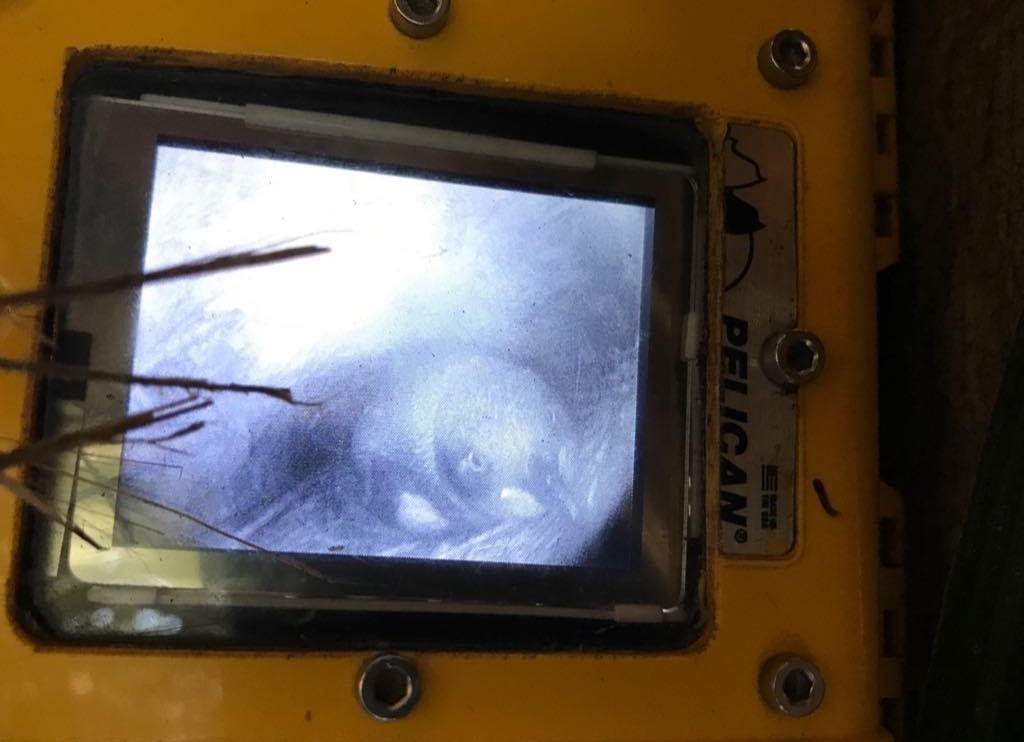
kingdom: Animalia
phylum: Chordata
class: Aves
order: Sphenisciformes
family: Spheniscidae
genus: Eudyptula
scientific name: Eudyptula minor
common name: Little penguin
